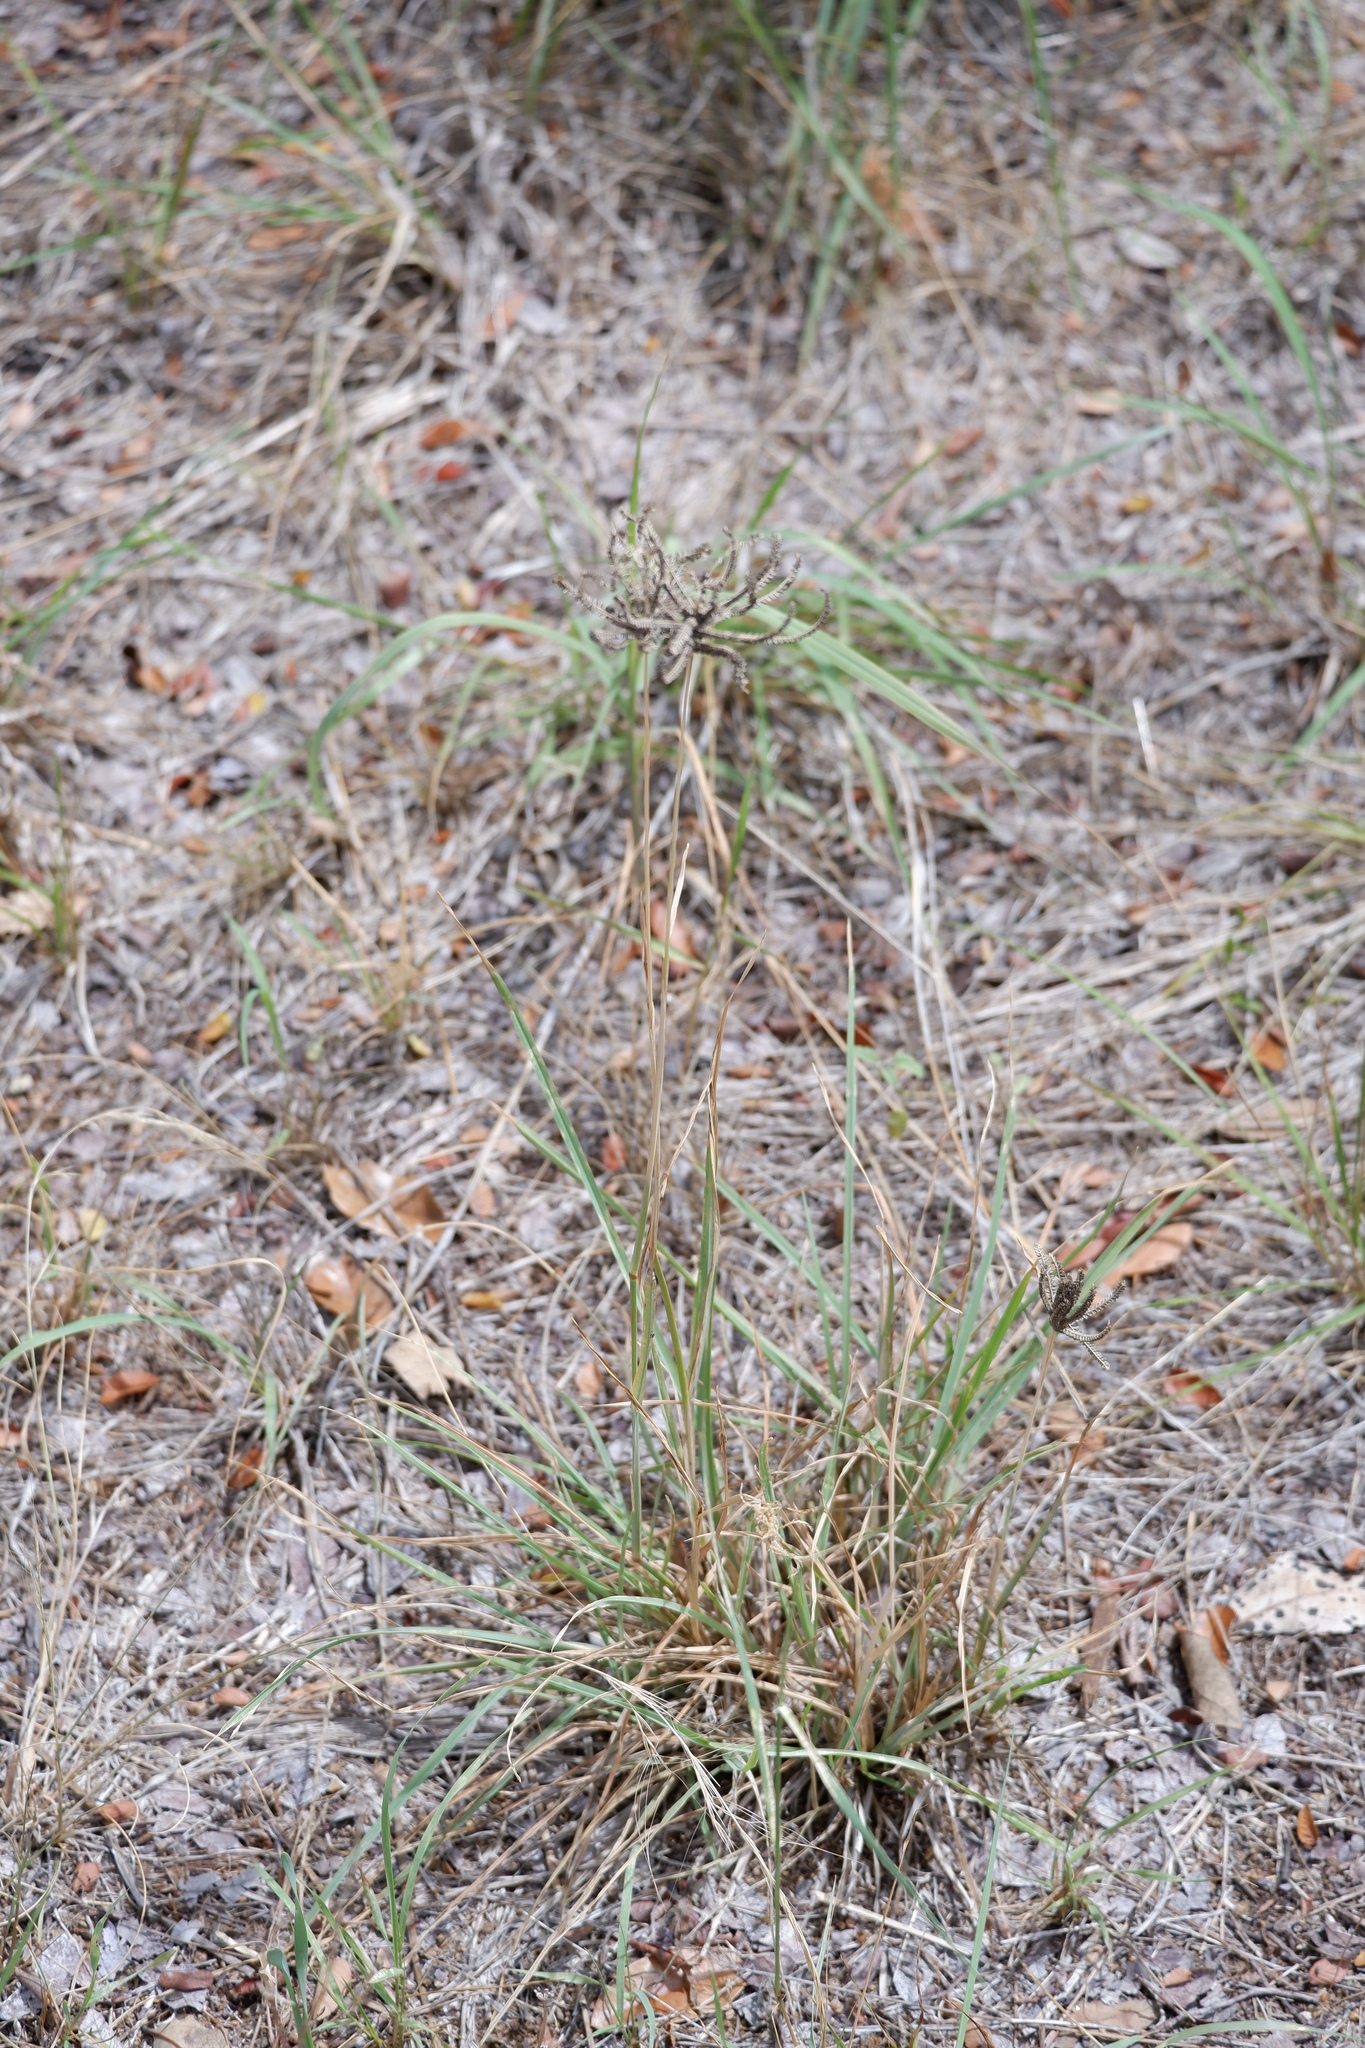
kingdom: Plantae
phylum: Tracheophyta
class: Liliopsida
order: Poales
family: Poaceae
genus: Chloris
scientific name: Chloris cucullata
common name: Hooded windmill grass
